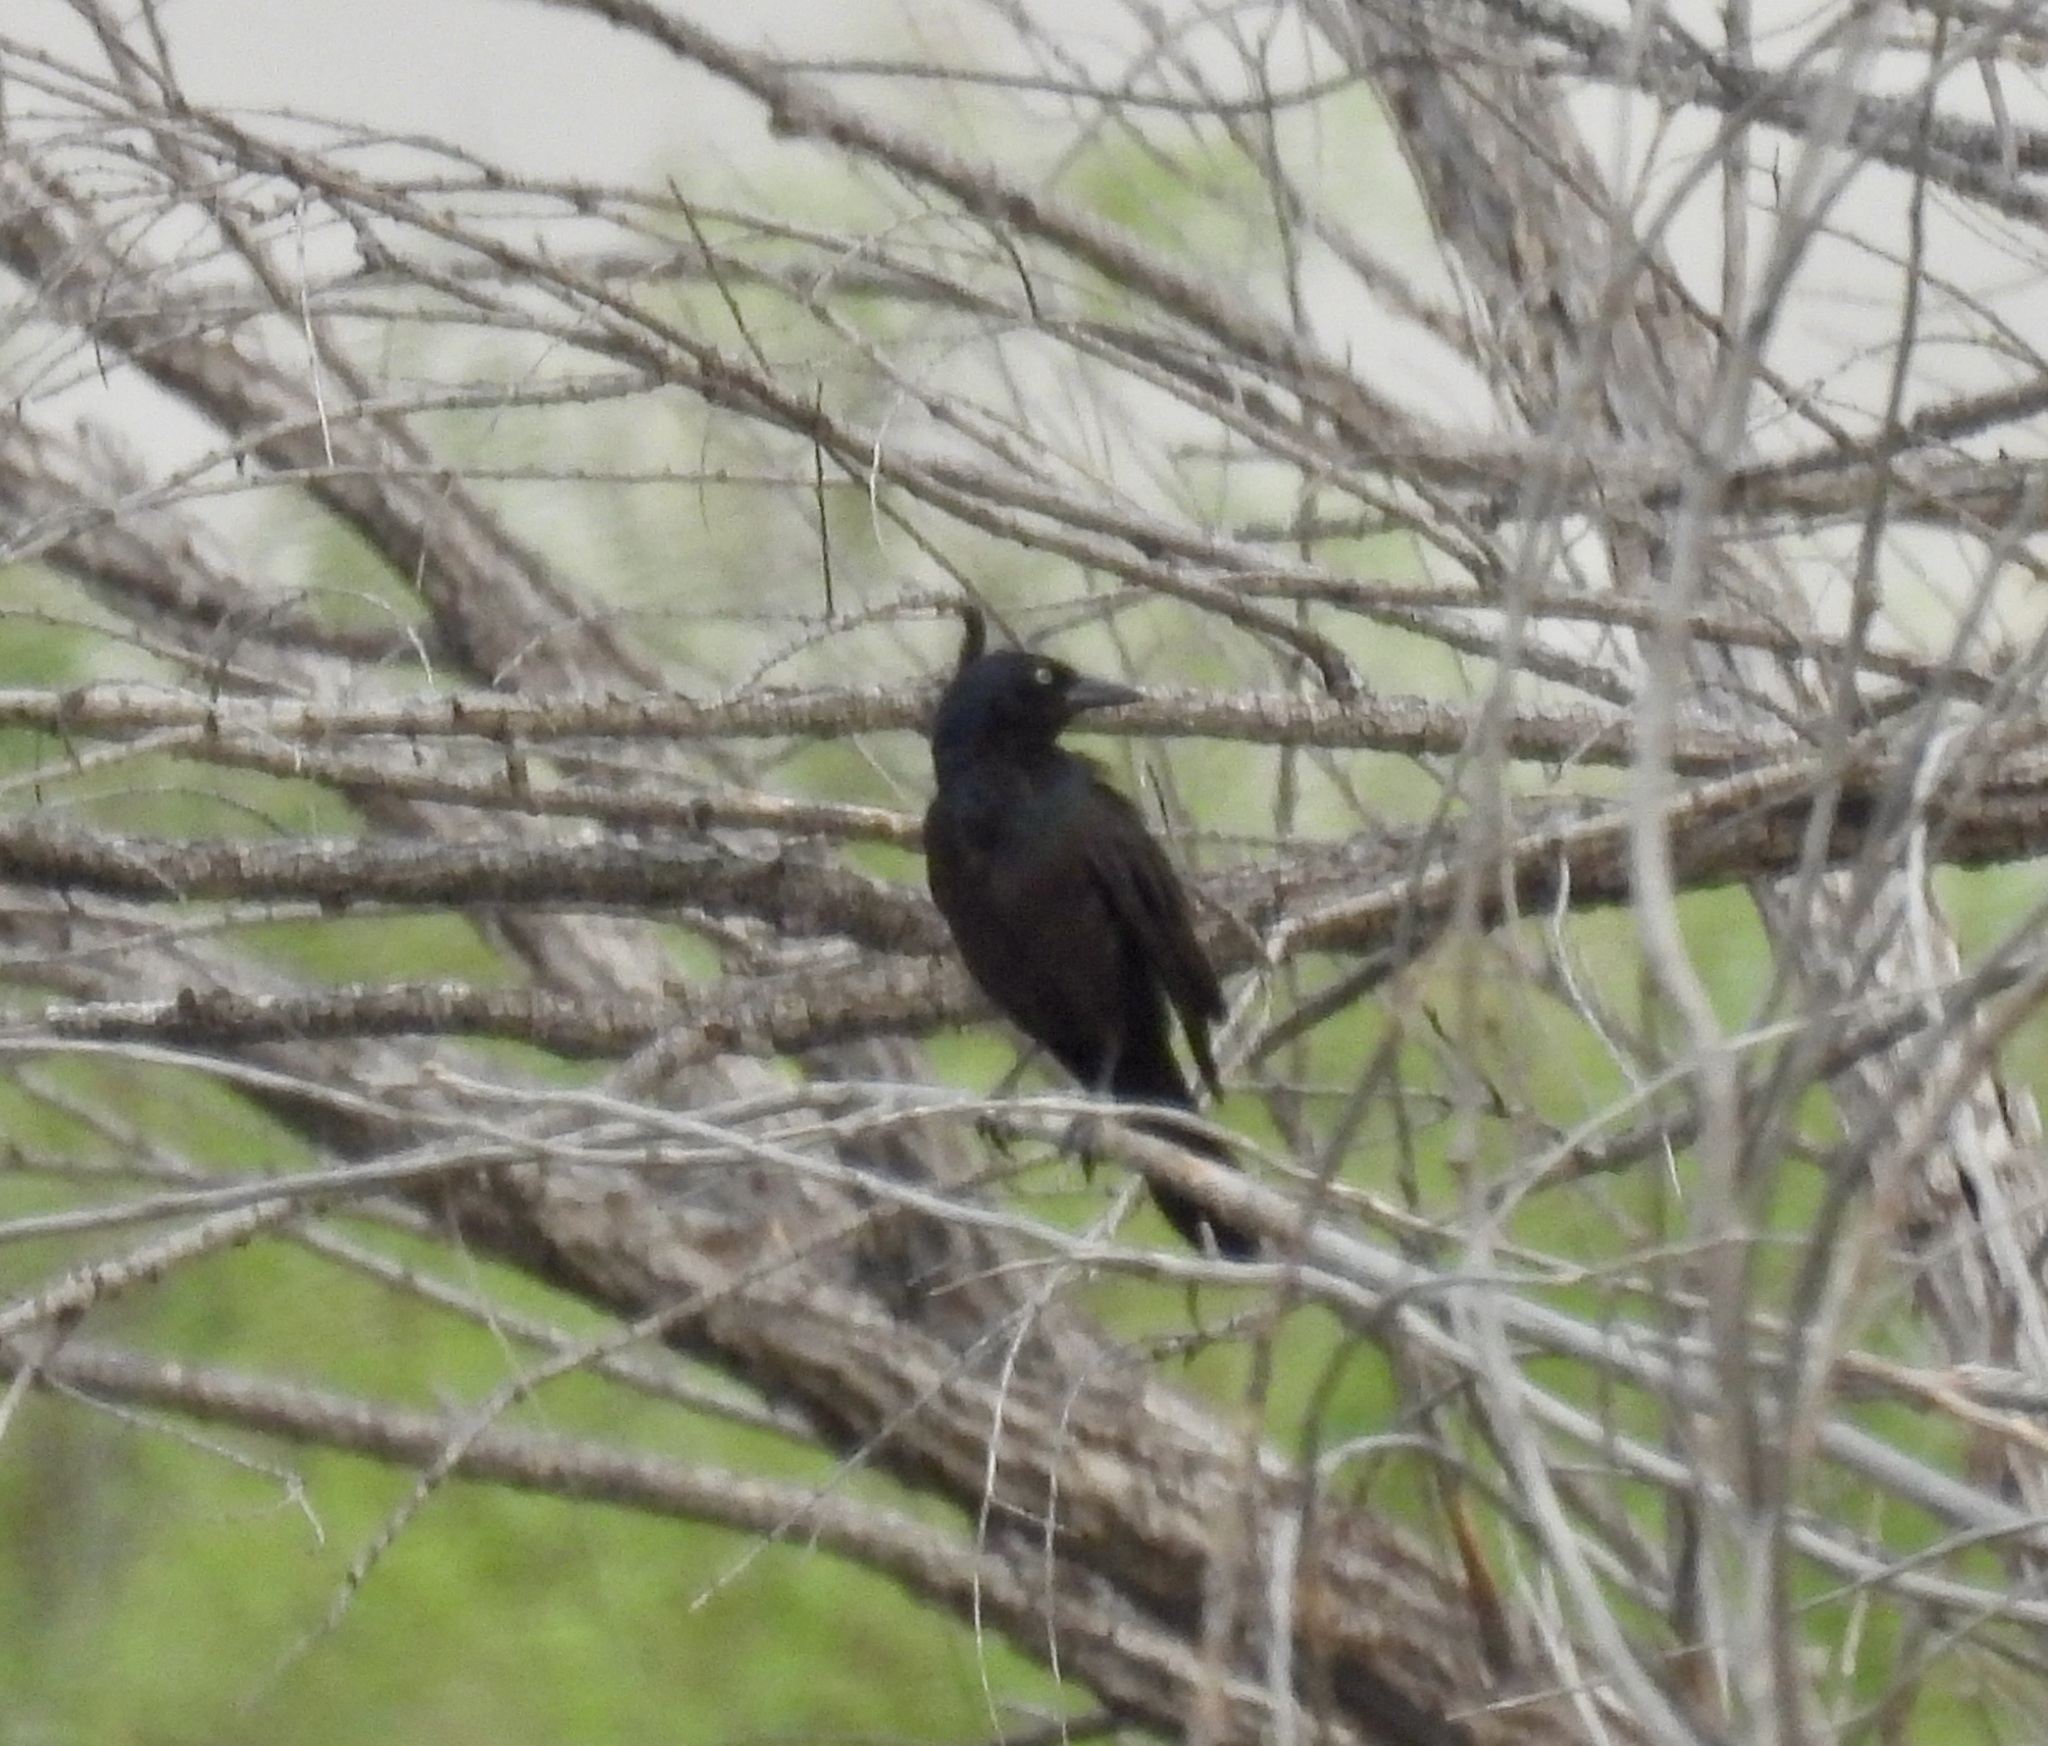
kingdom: Animalia
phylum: Chordata
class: Aves
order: Passeriformes
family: Icteridae
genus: Quiscalus
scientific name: Quiscalus quiscula
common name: Common grackle
